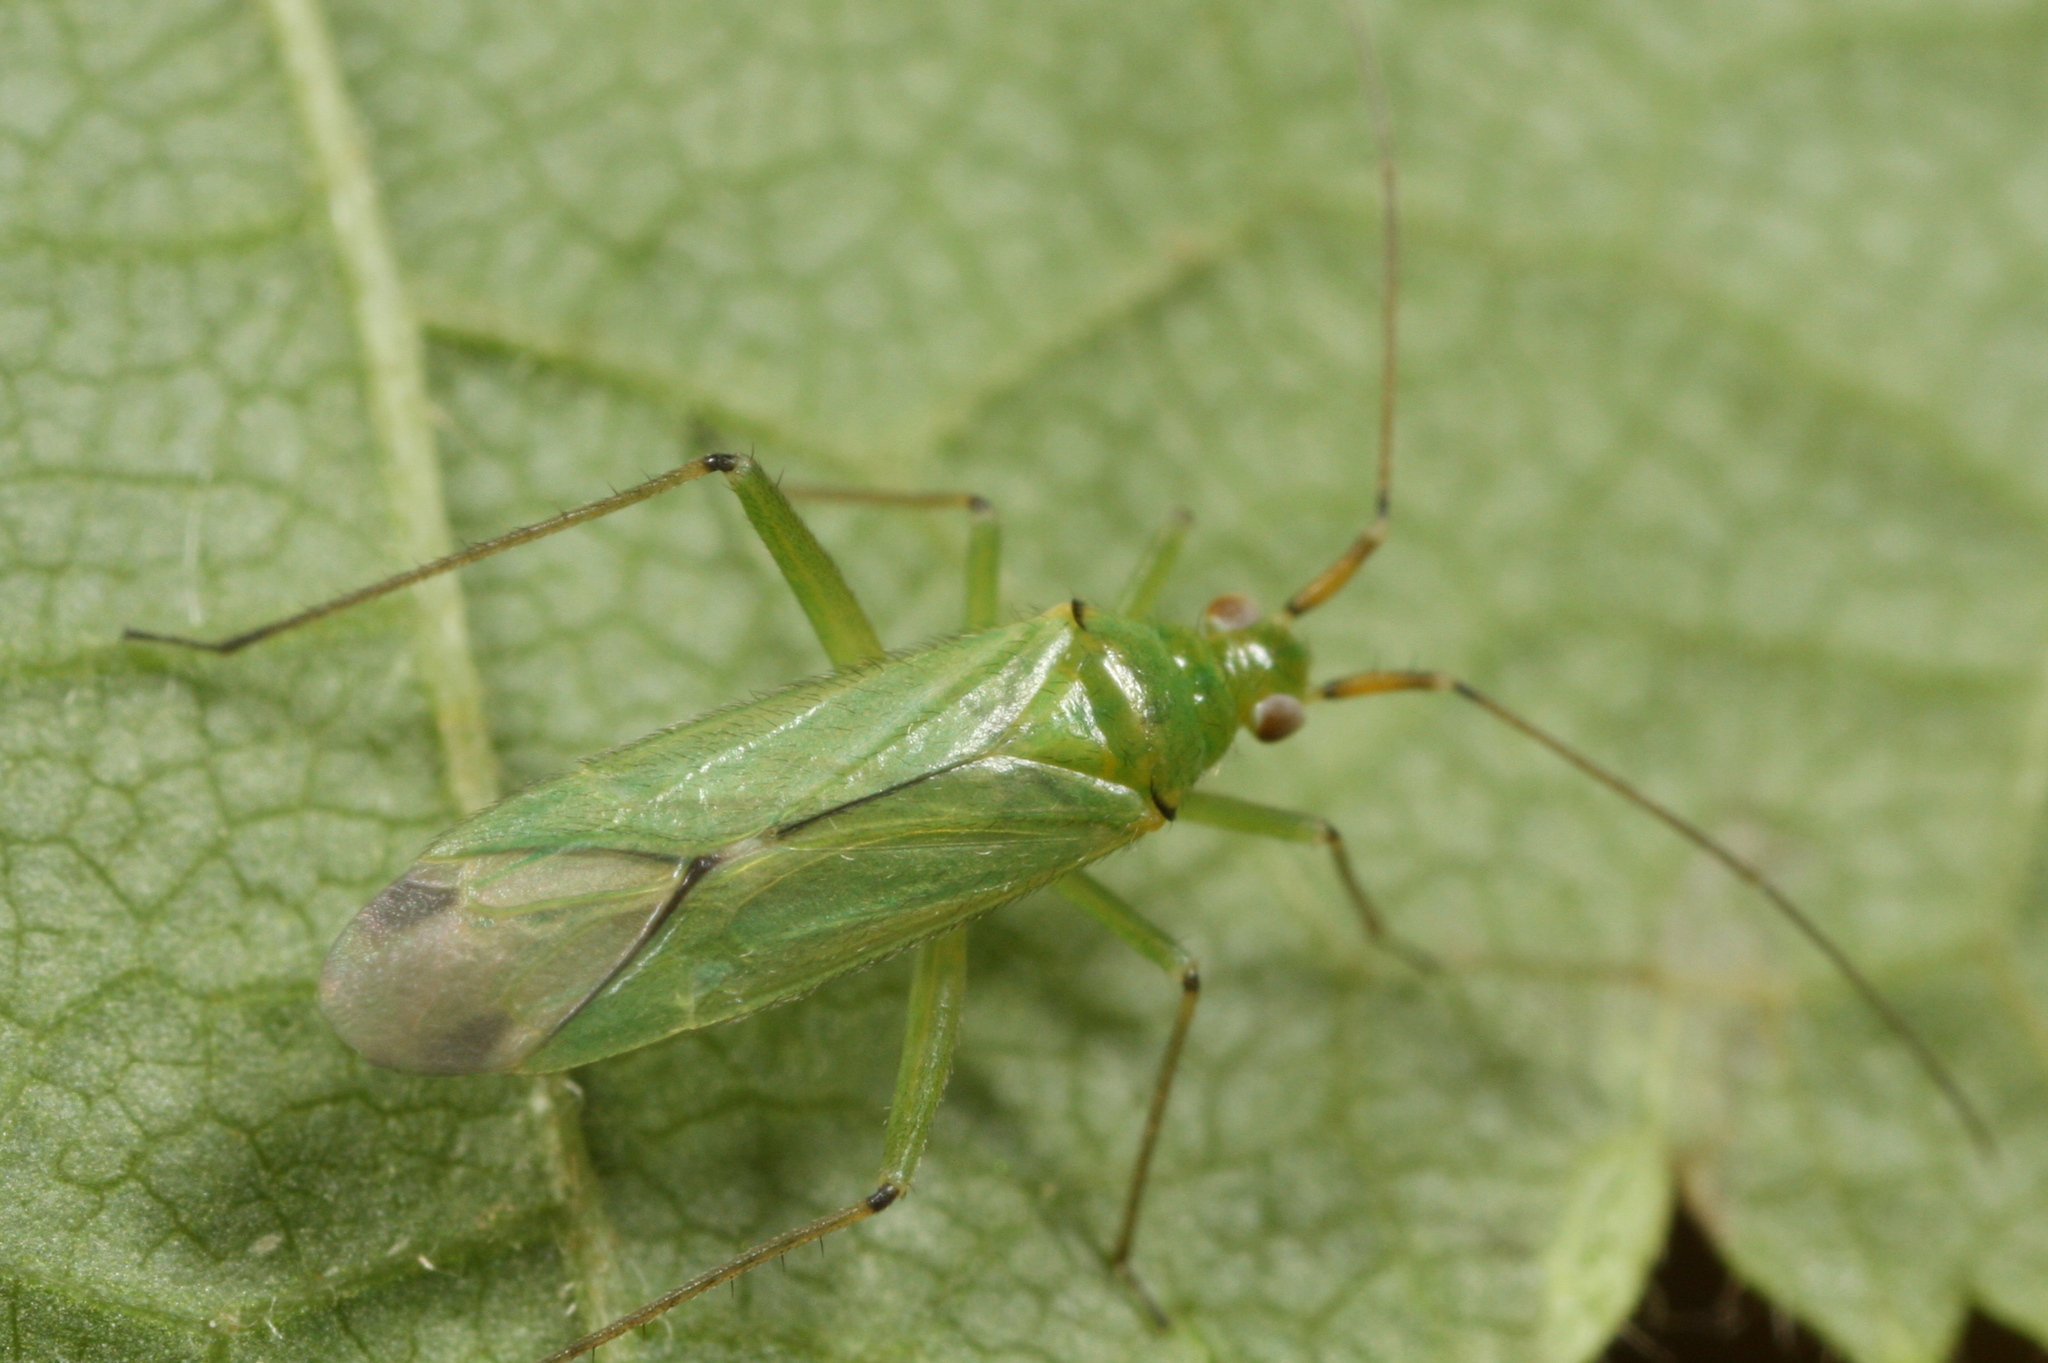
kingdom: Animalia
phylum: Arthropoda
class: Insecta
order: Hemiptera
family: Miridae
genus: Blepharidopterus
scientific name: Blepharidopterus angulatus
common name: Plant bug
